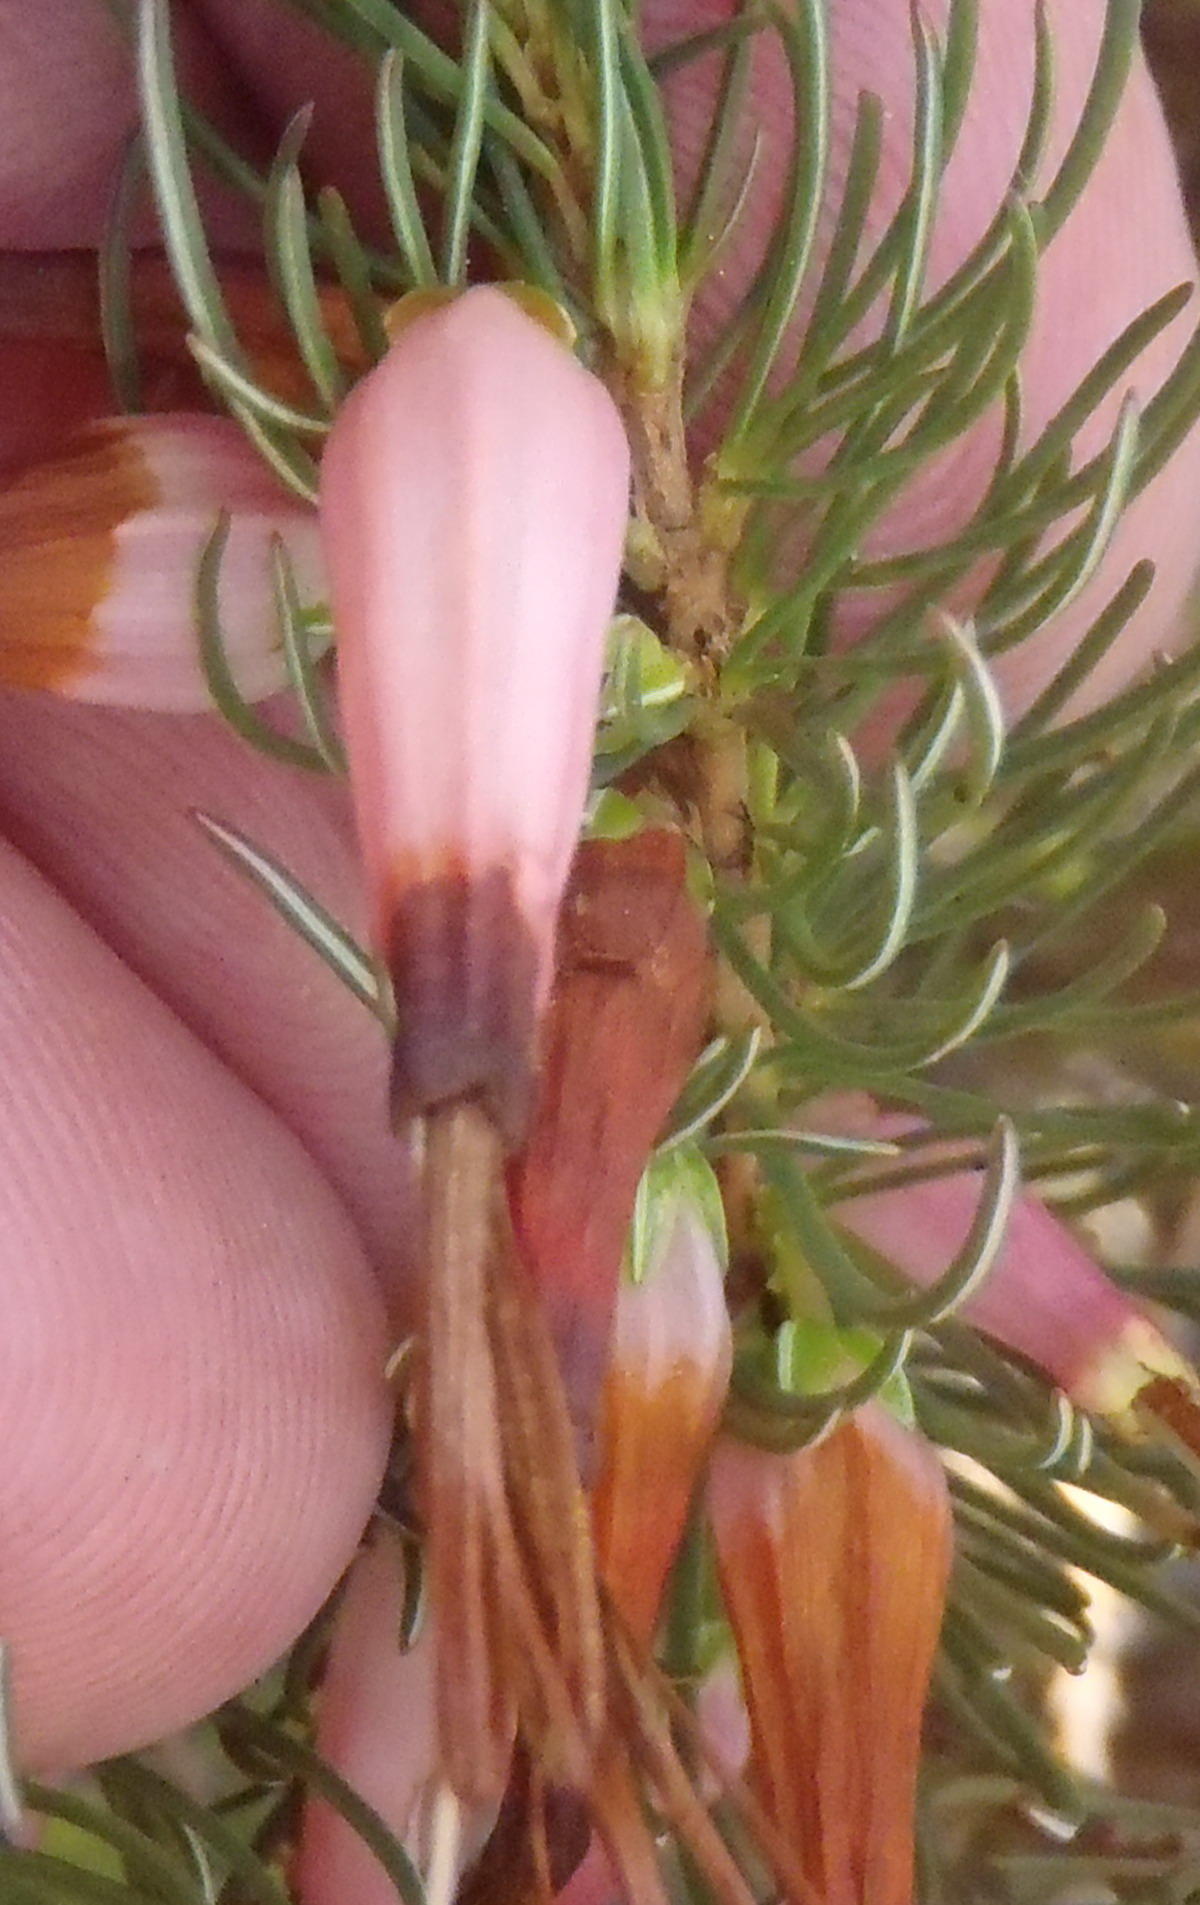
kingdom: Plantae
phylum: Tracheophyta
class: Magnoliopsida
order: Ericales
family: Ericaceae
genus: Erica
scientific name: Erica plukenetii
